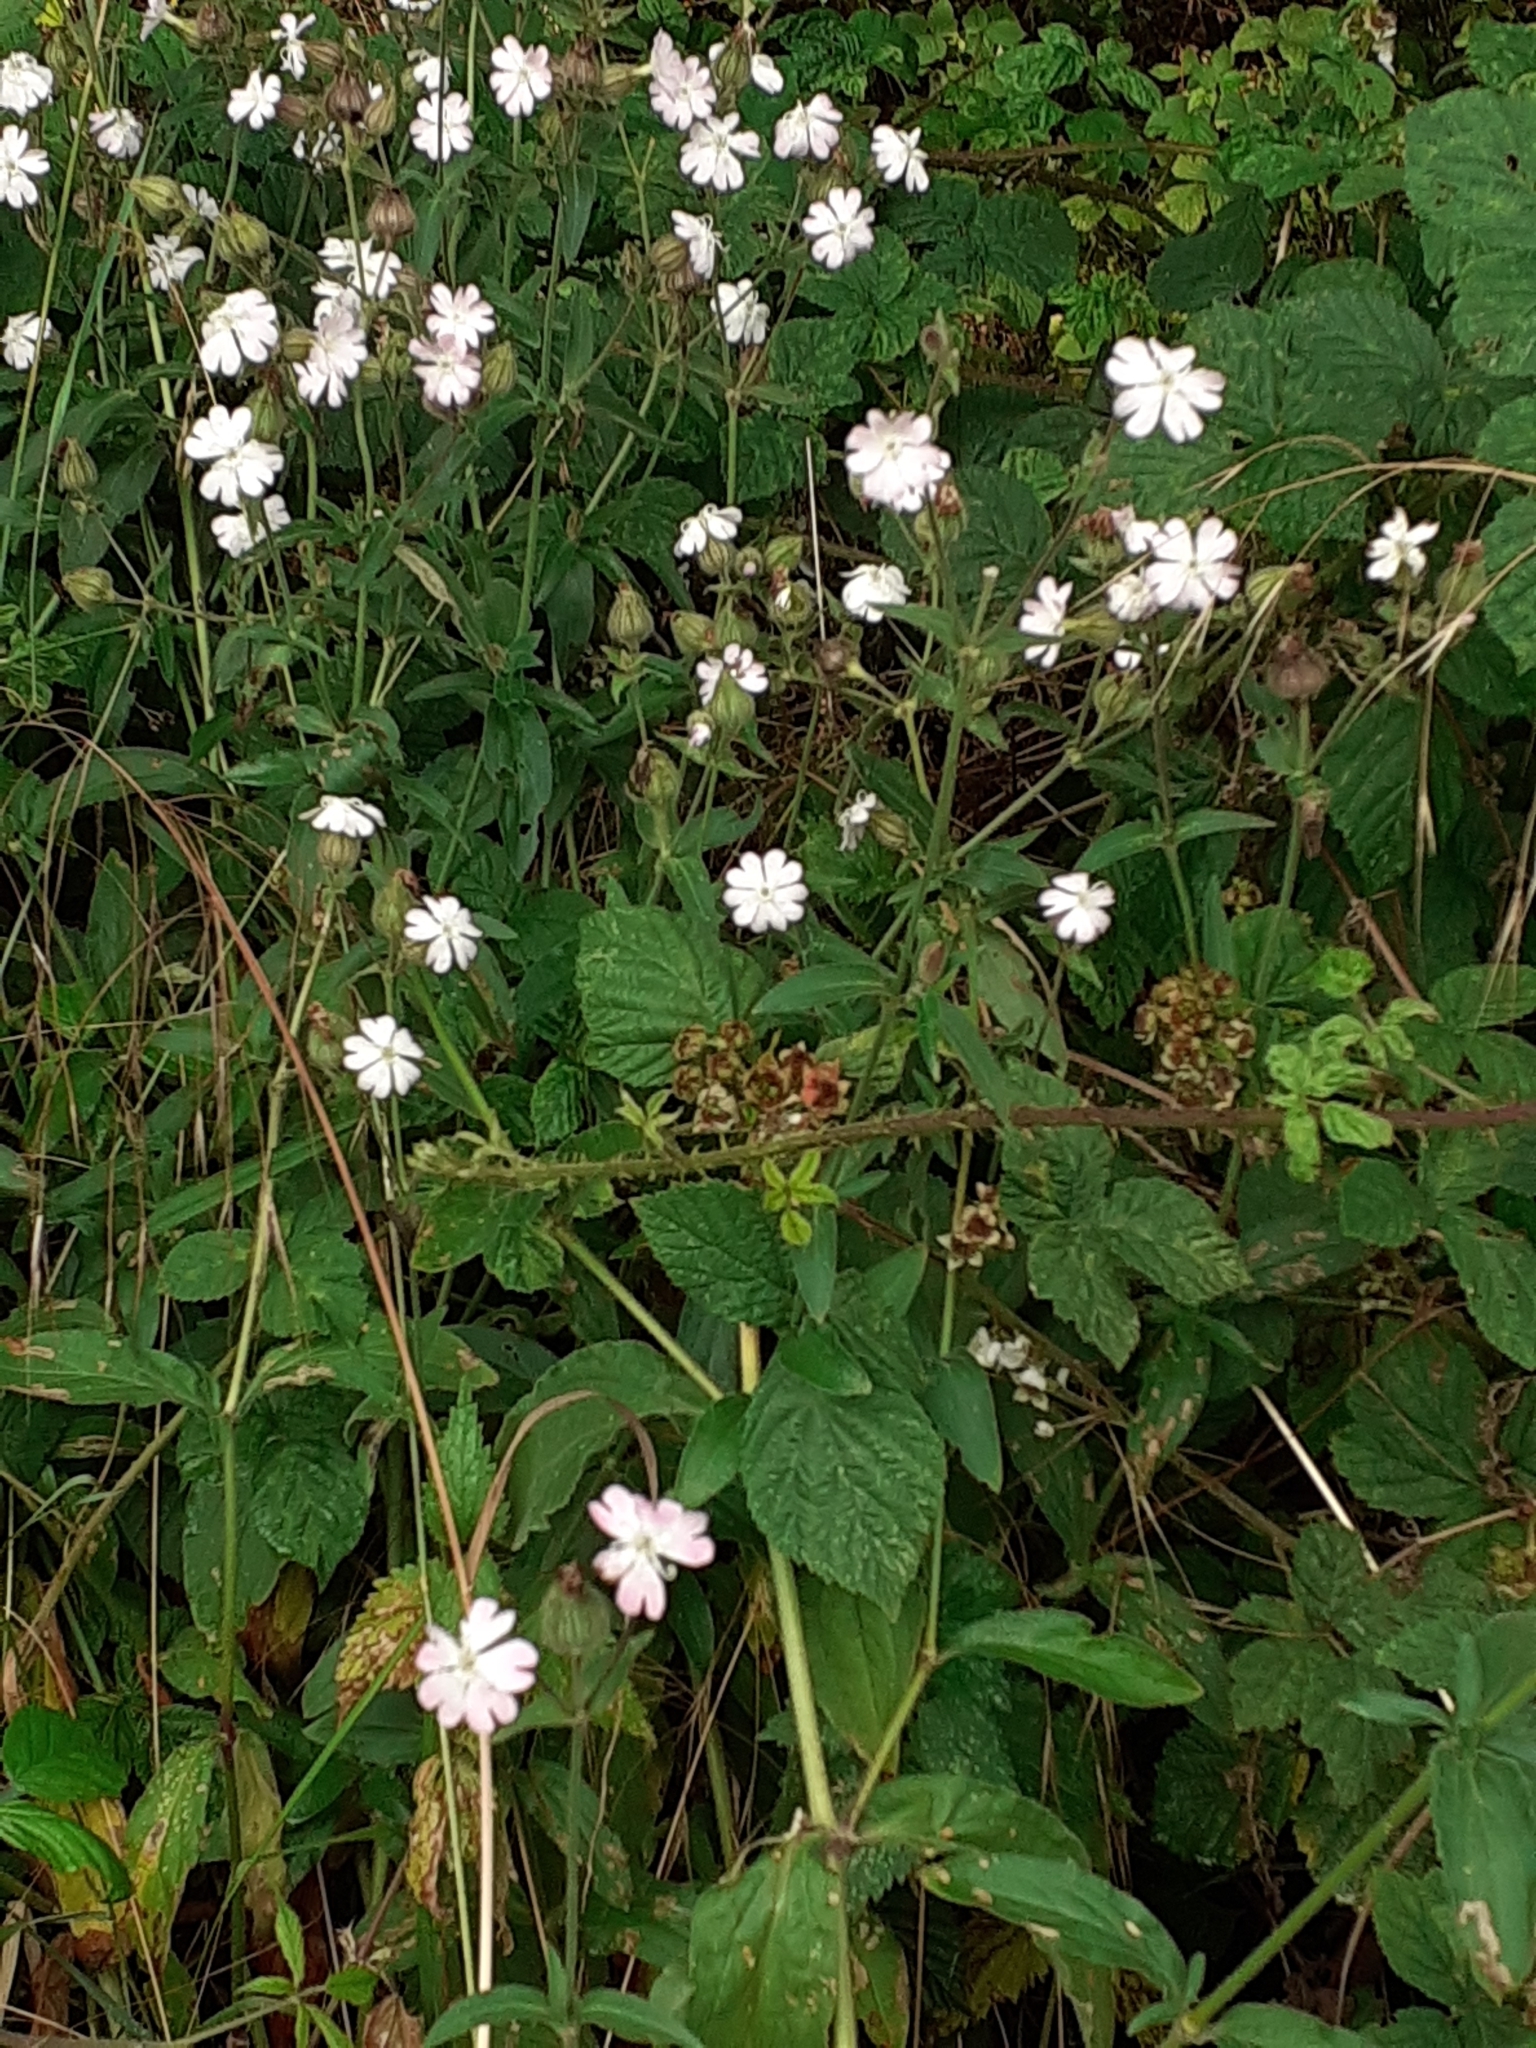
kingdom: Plantae
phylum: Tracheophyta
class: Magnoliopsida
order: Caryophyllales
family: Caryophyllaceae
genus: Silene
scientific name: Silene latifolia
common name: White campion
